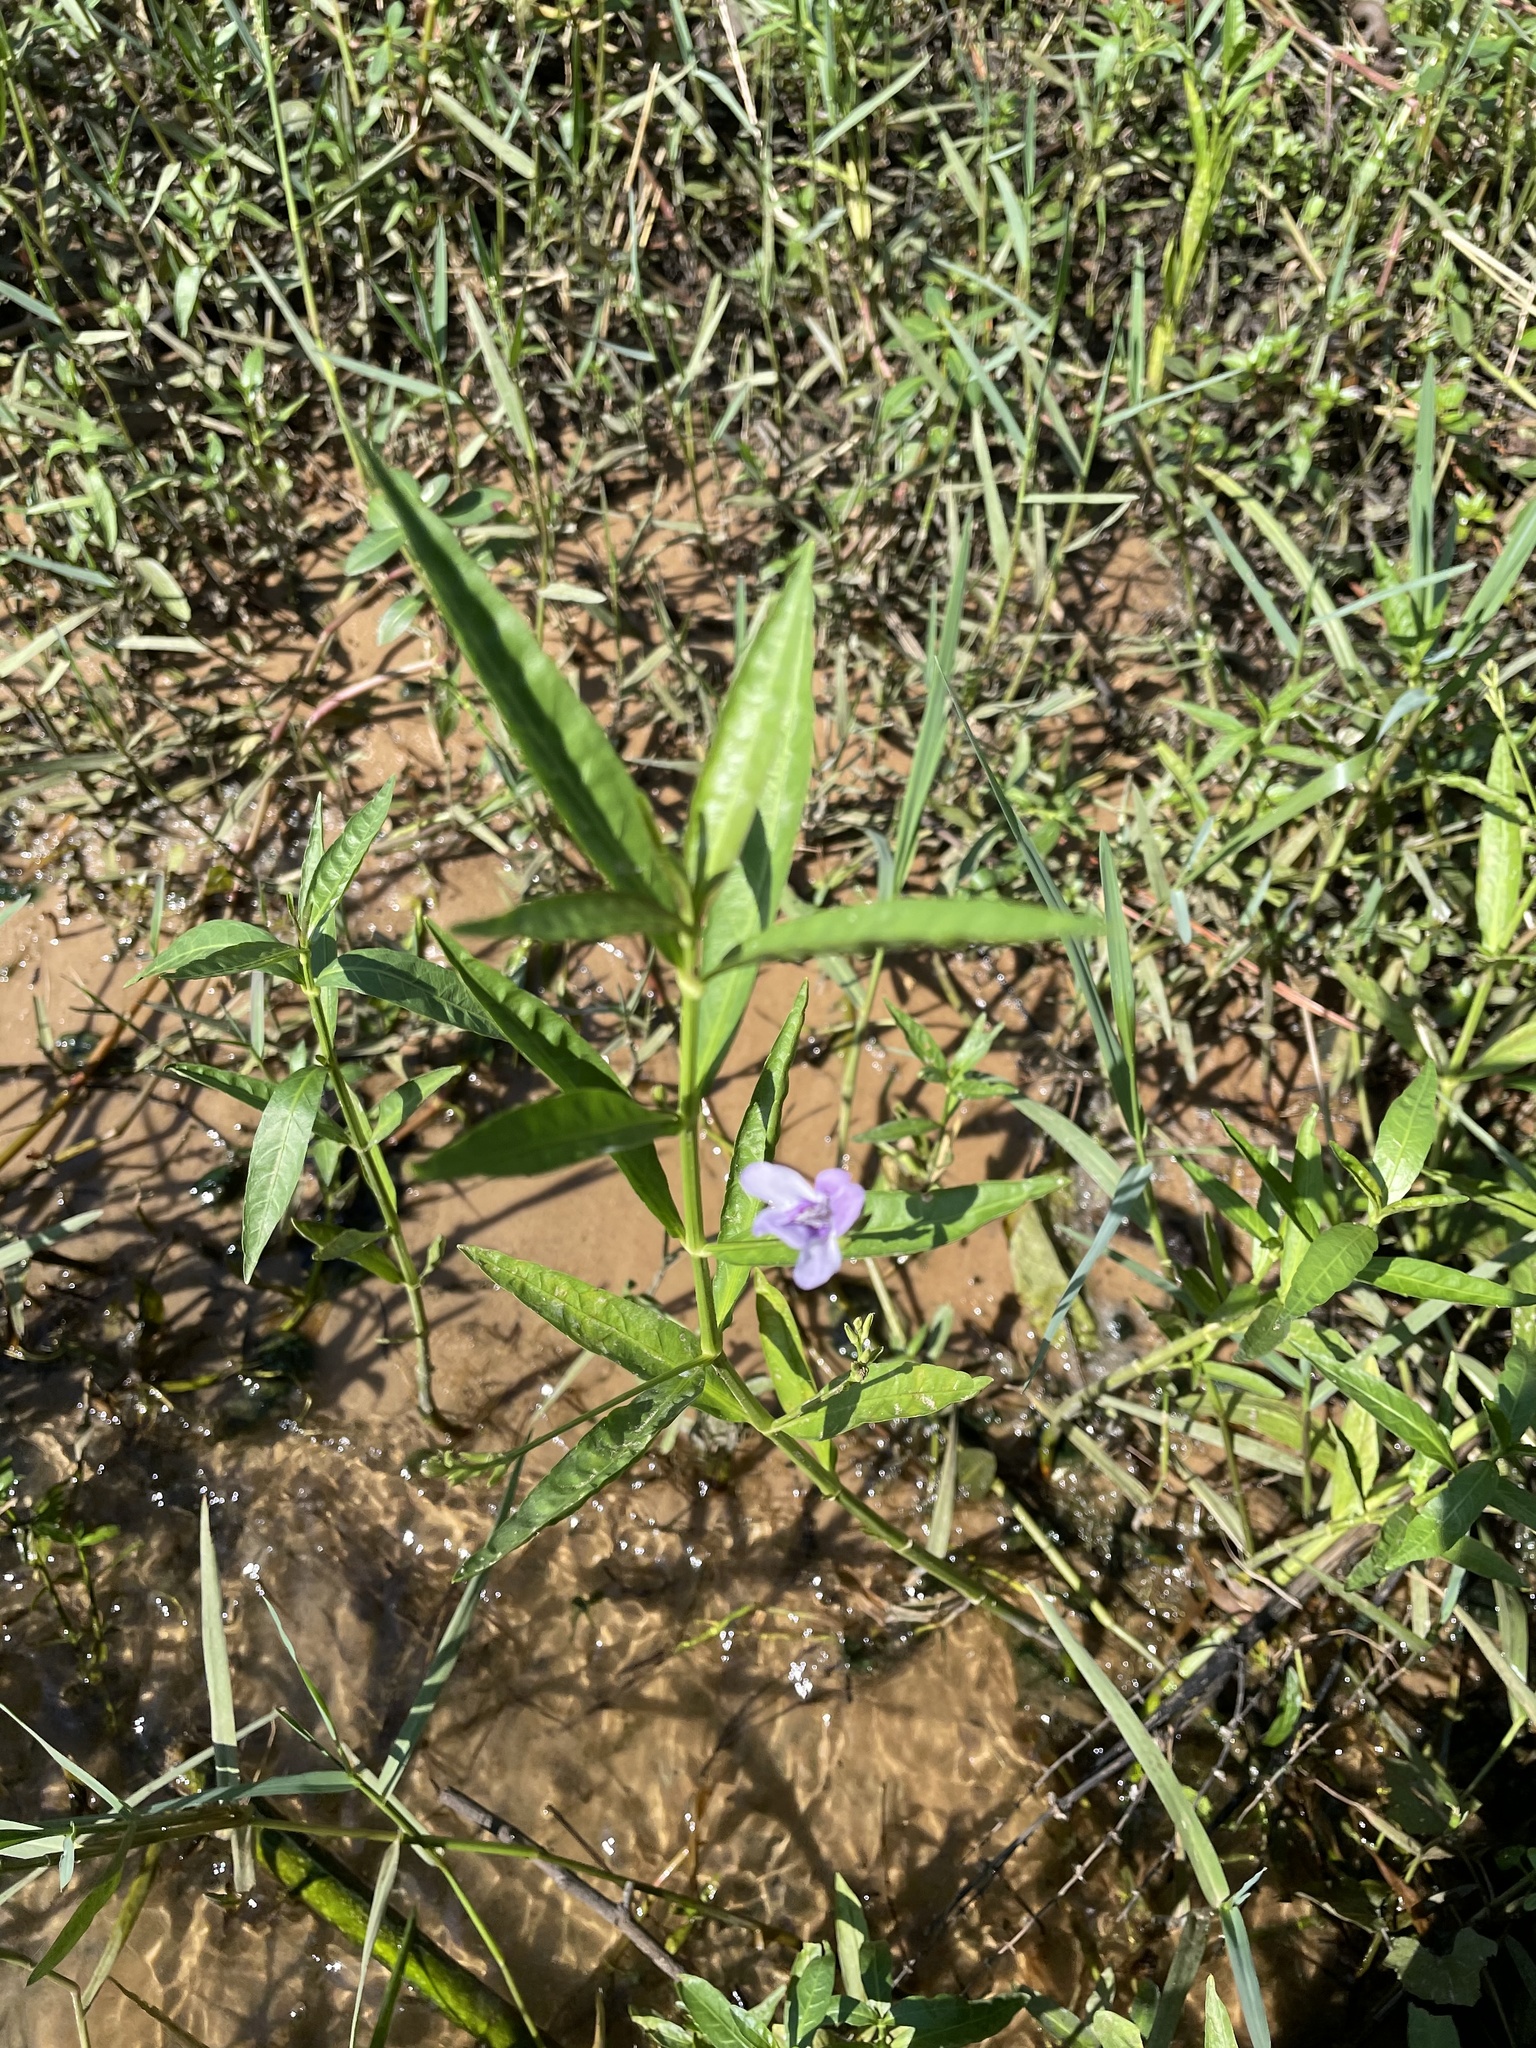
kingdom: Plantae
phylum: Tracheophyta
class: Magnoliopsida
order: Lamiales
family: Acanthaceae
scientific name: Acanthaceae
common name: Acanthaceae
